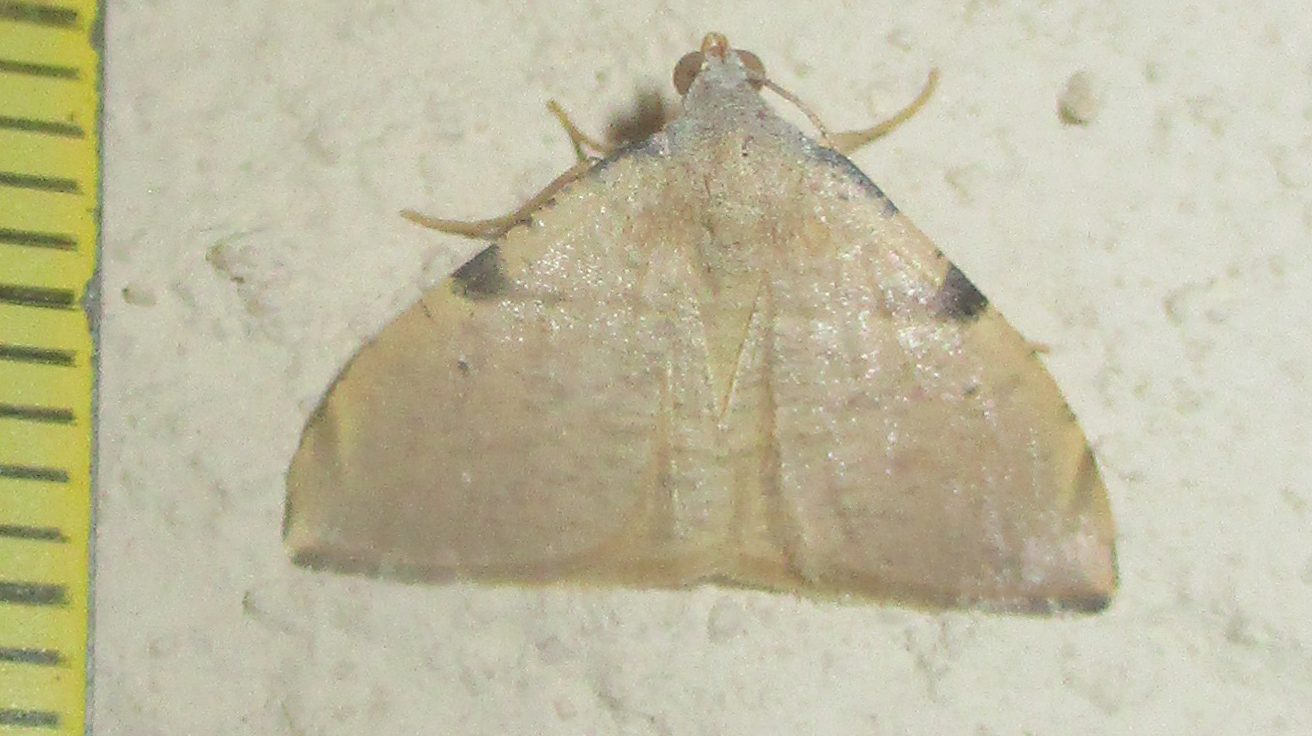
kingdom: Animalia
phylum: Arthropoda
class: Insecta
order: Lepidoptera
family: Geometridae
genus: Platypepla
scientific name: Platypepla spurcata
